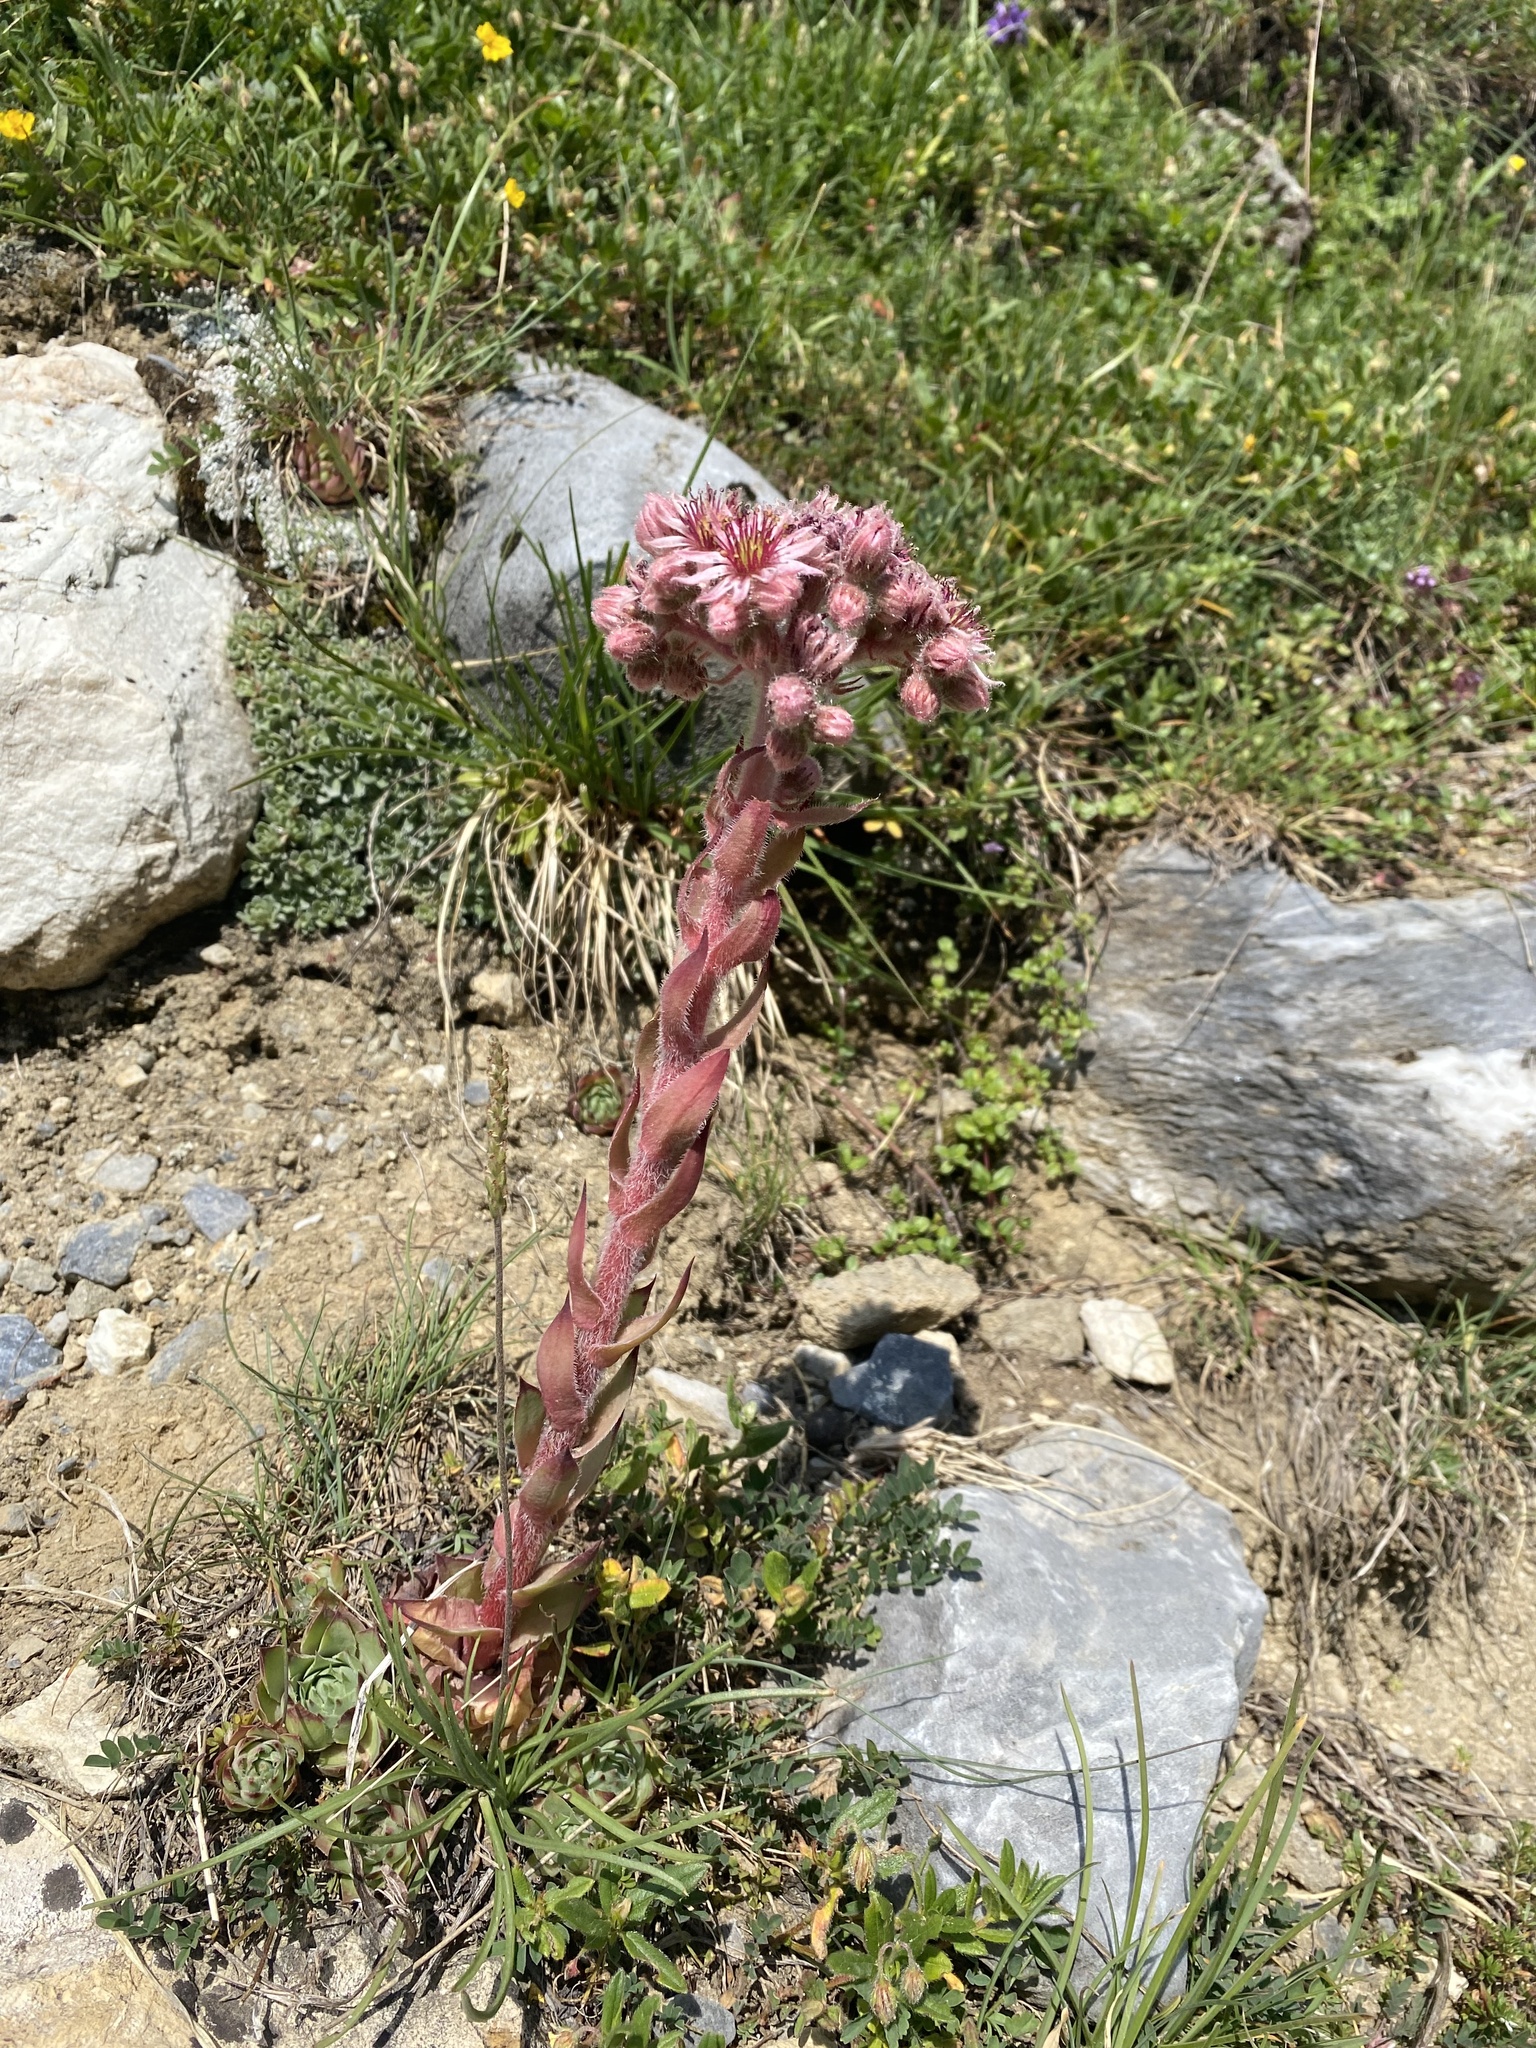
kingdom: Plantae
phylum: Tracheophyta
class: Magnoliopsida
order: Saxifragales
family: Crassulaceae
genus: Sempervivum
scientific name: Sempervivum tectorum
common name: House-leek
